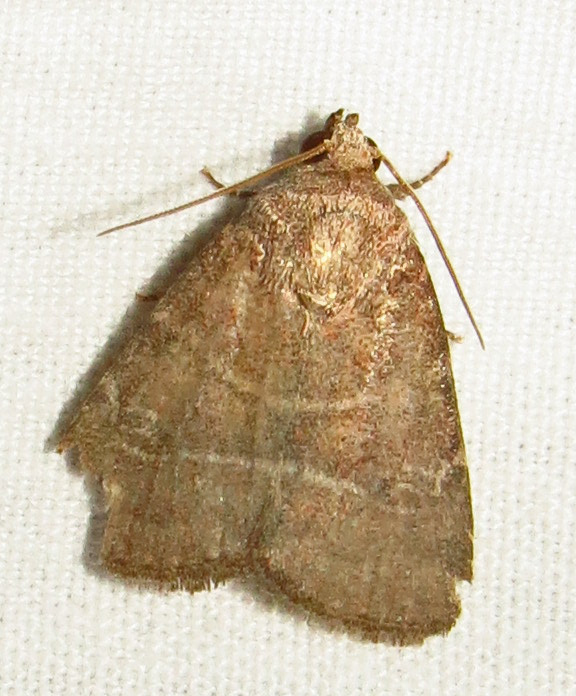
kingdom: Animalia
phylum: Arthropoda
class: Insecta
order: Lepidoptera
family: Noctuidae
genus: Elaphria
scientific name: Elaphria grata
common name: Grateful midget moth
